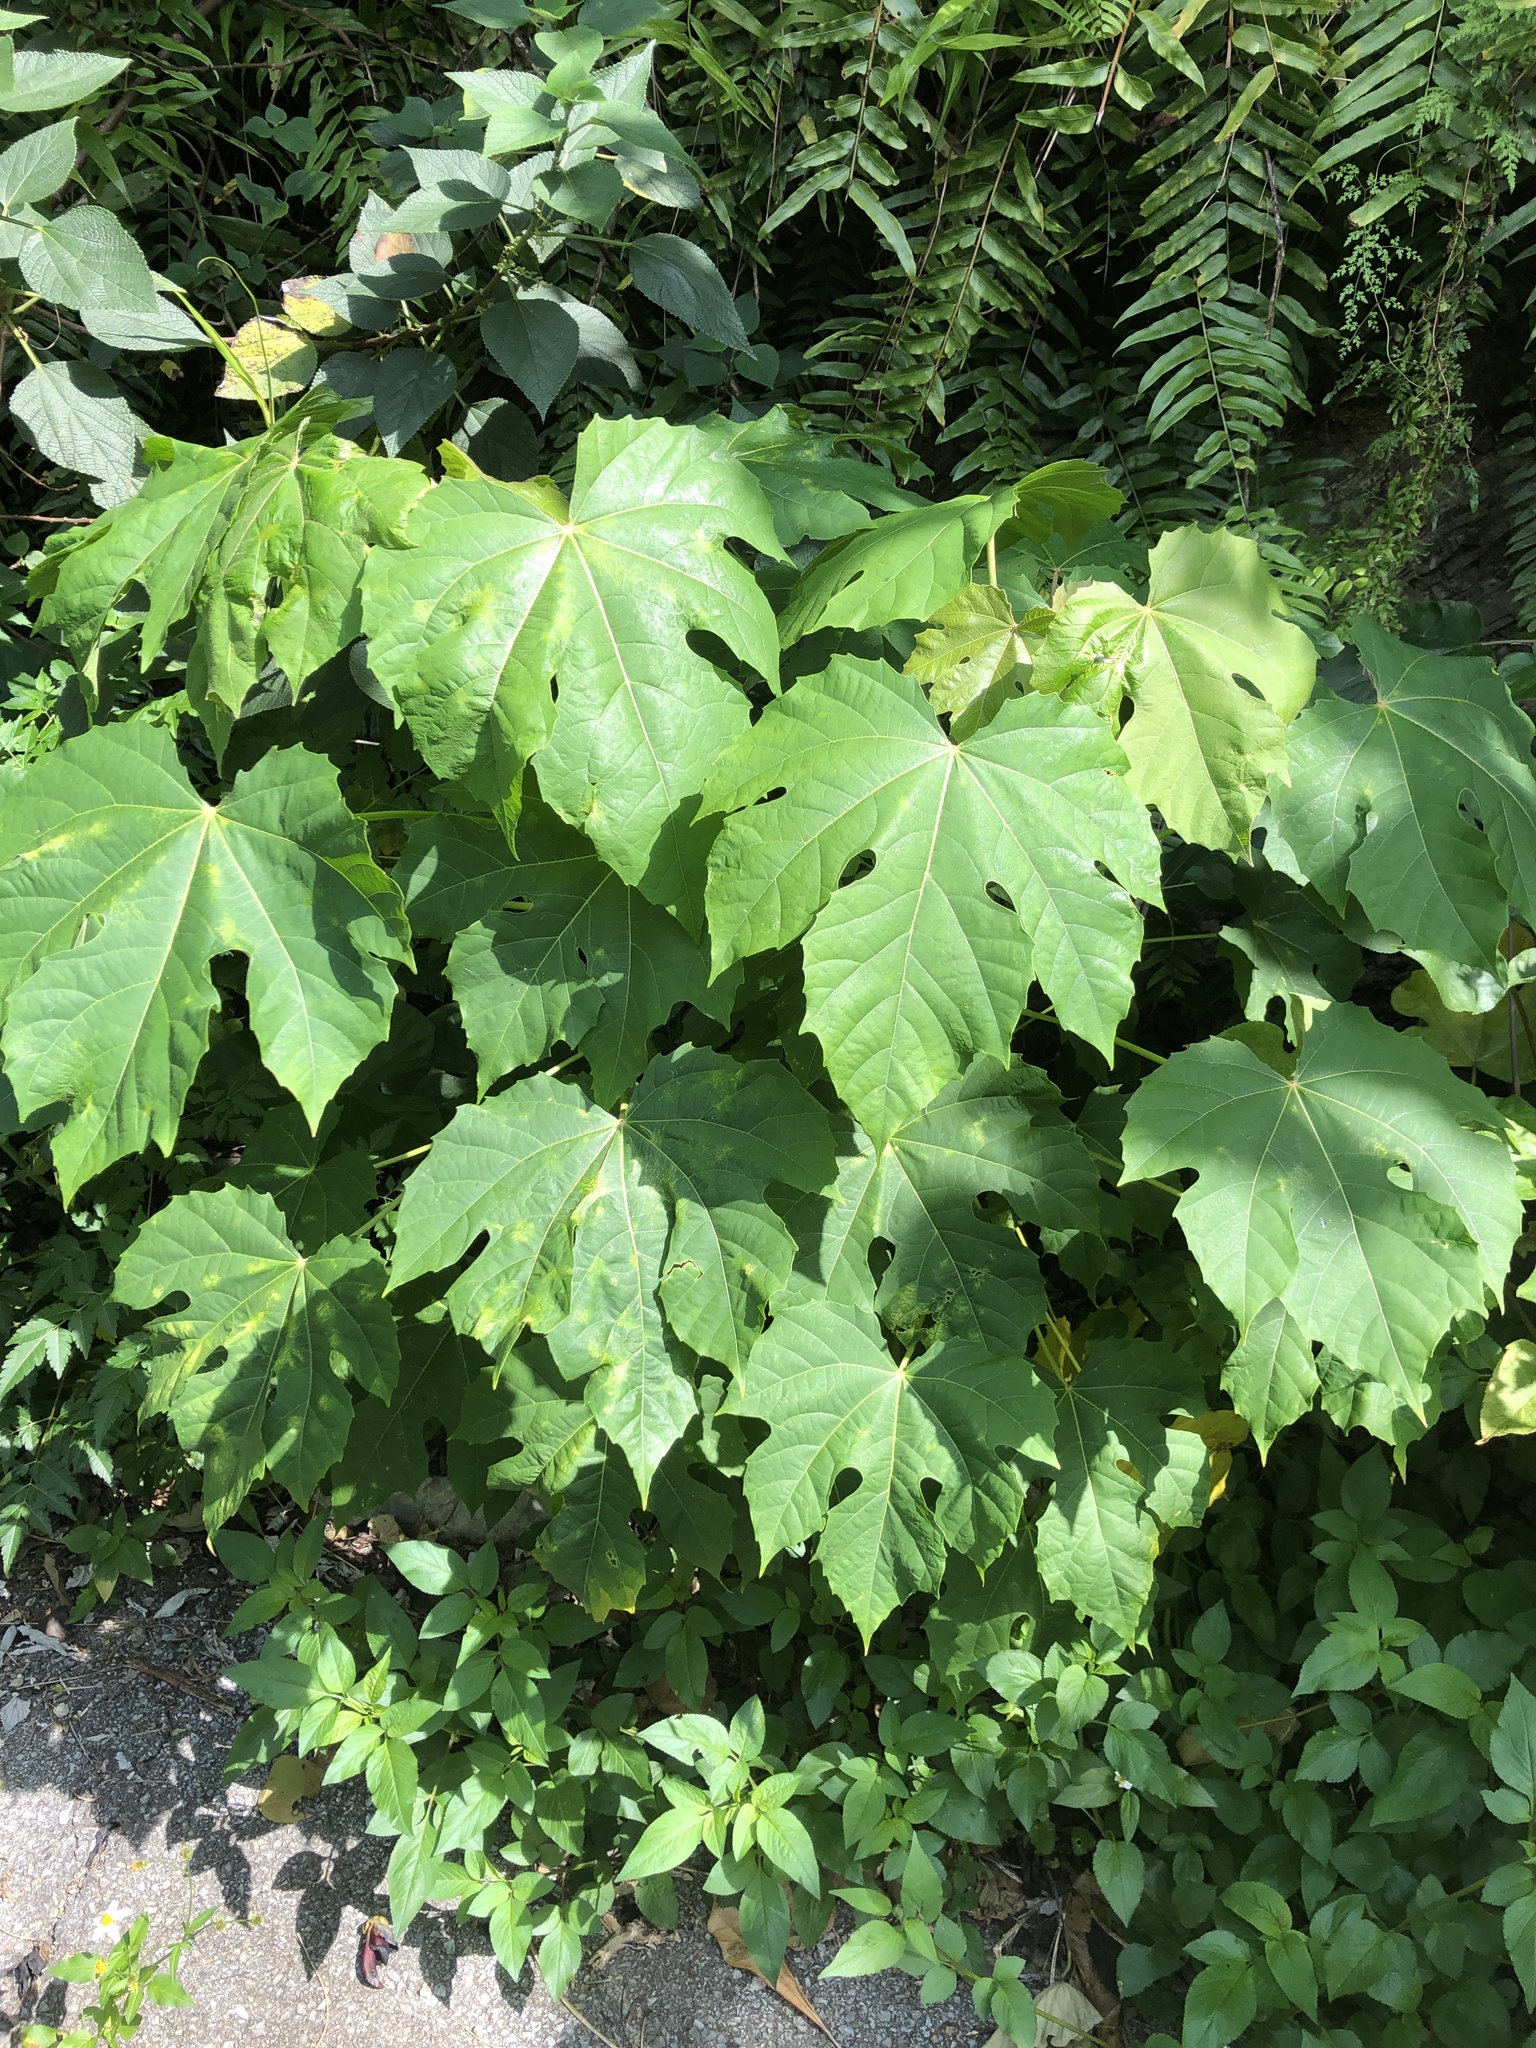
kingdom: Plantae
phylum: Tracheophyta
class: Magnoliopsida
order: Malpighiales
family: Euphorbiaceae
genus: Melanolepis
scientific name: Melanolepis multiglandulosa
